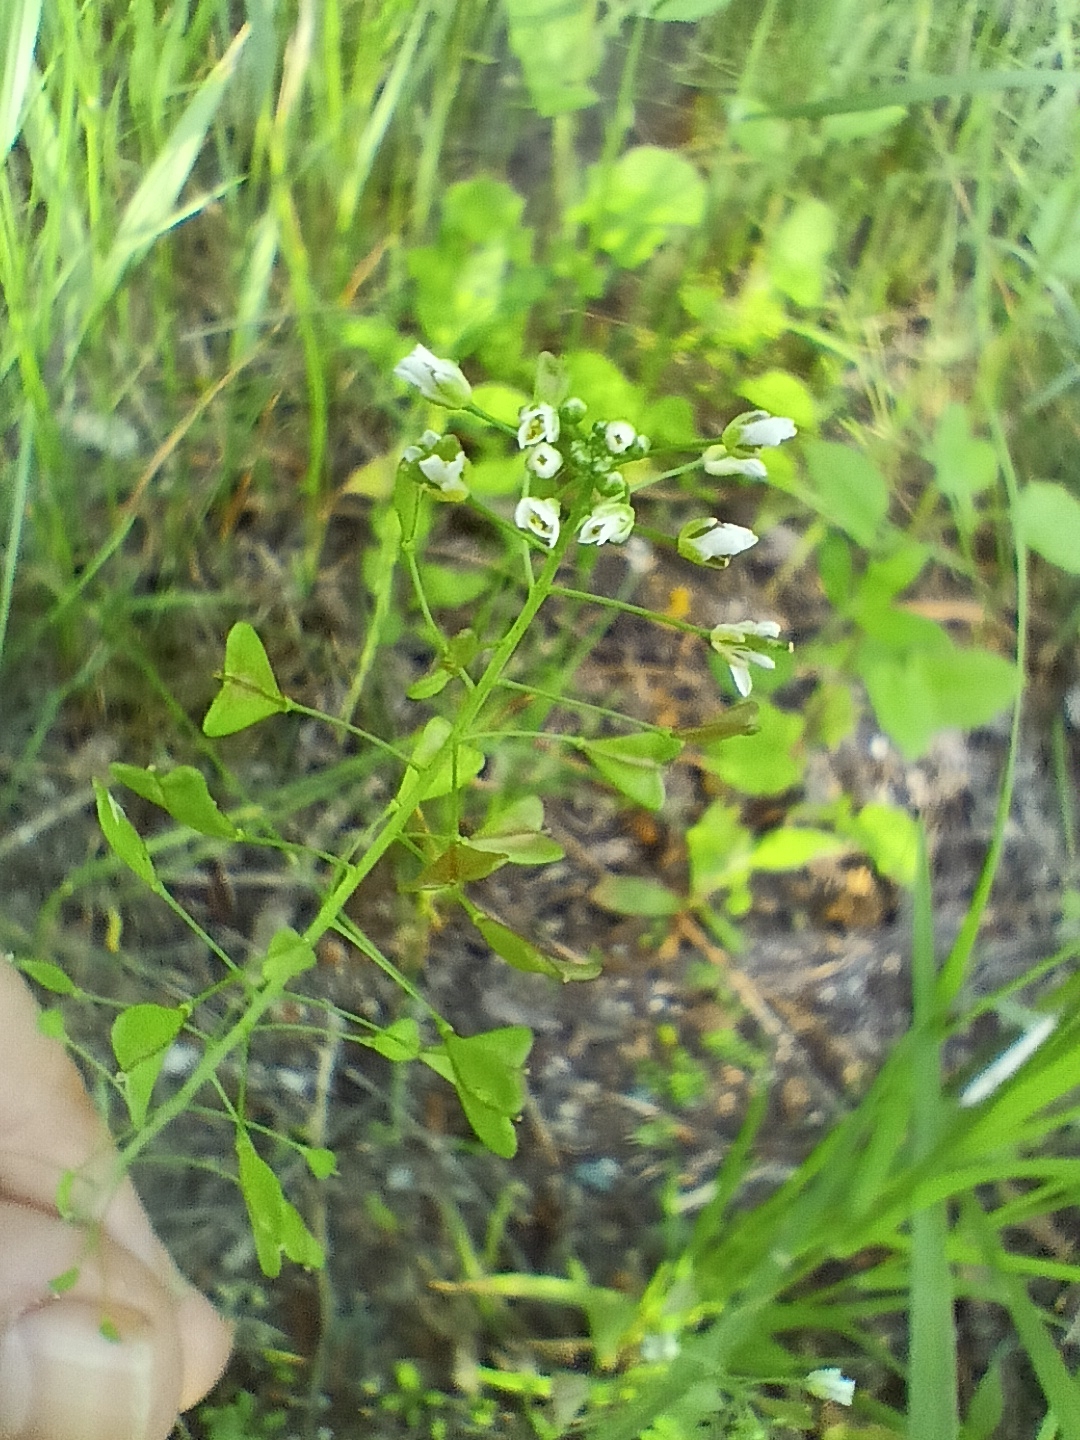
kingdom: Plantae
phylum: Tracheophyta
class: Magnoliopsida
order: Brassicales
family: Brassicaceae
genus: Capsella
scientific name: Capsella bursa-pastoris
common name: Shepherd's purse
